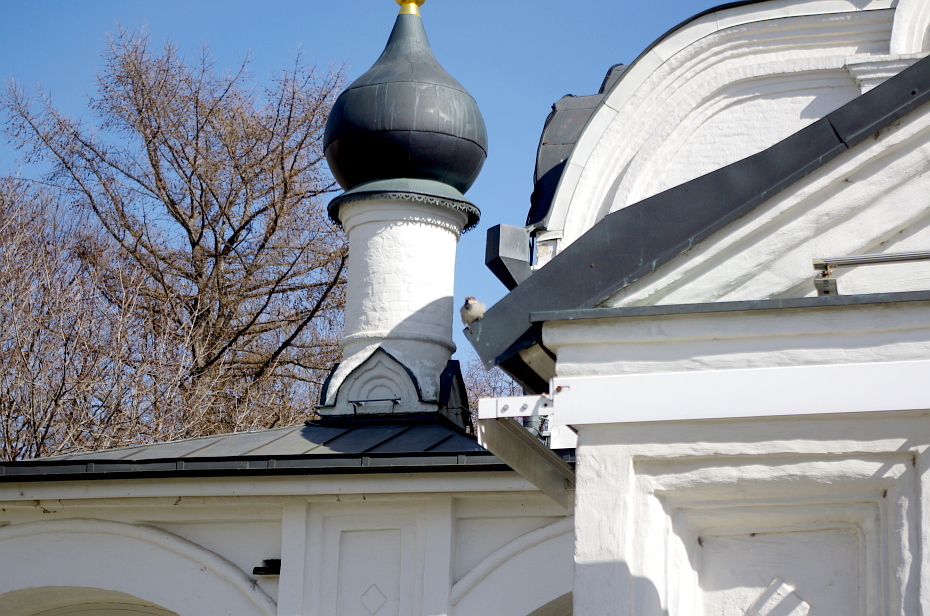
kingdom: Animalia
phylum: Chordata
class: Aves
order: Passeriformes
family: Passeridae
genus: Passer
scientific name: Passer domesticus
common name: House sparrow
